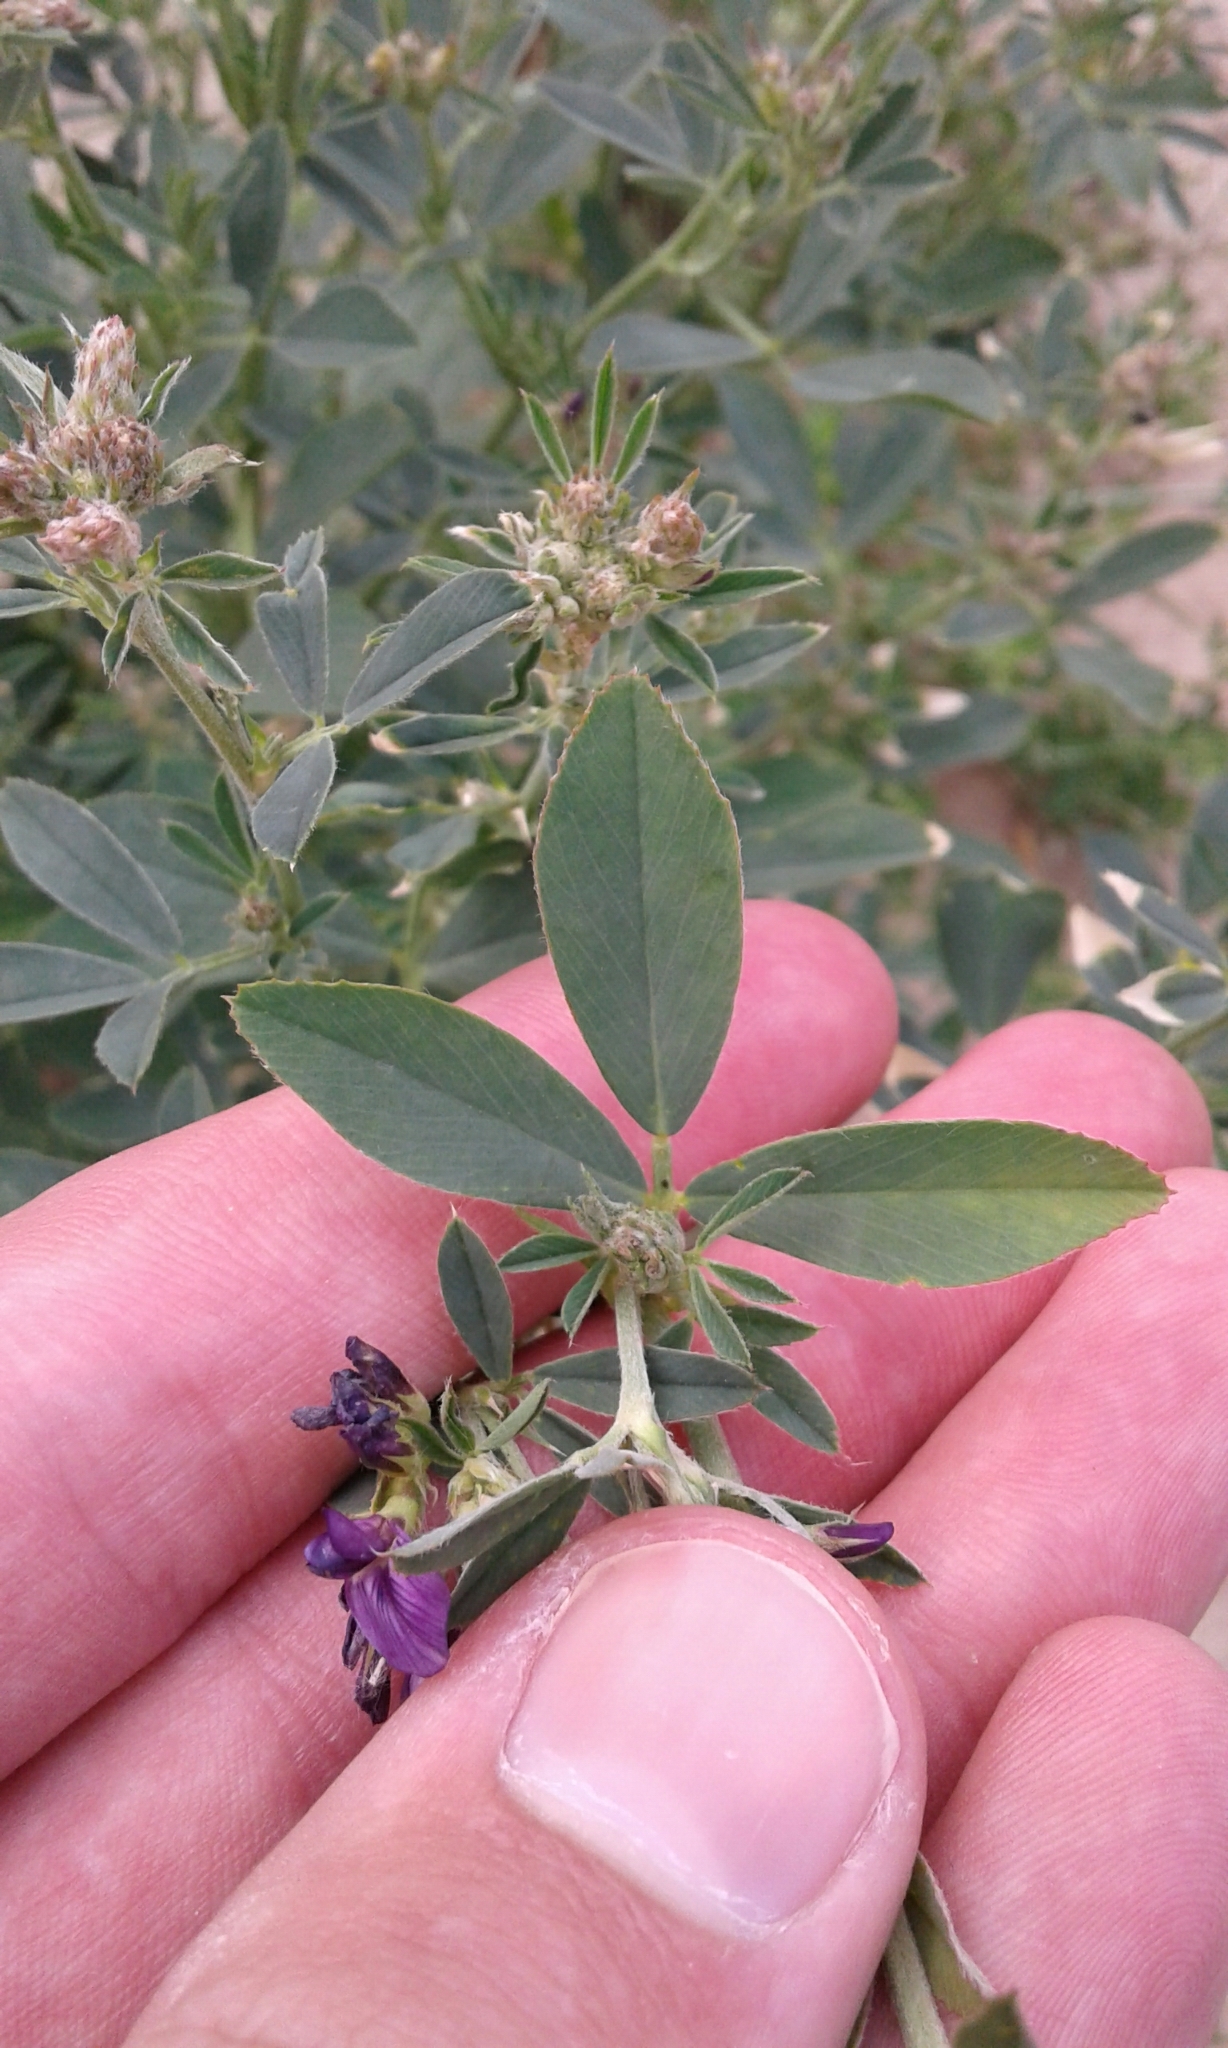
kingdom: Plantae
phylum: Tracheophyta
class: Magnoliopsida
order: Fabales
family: Fabaceae
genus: Medicago
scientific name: Medicago sativa
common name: Alfalfa
